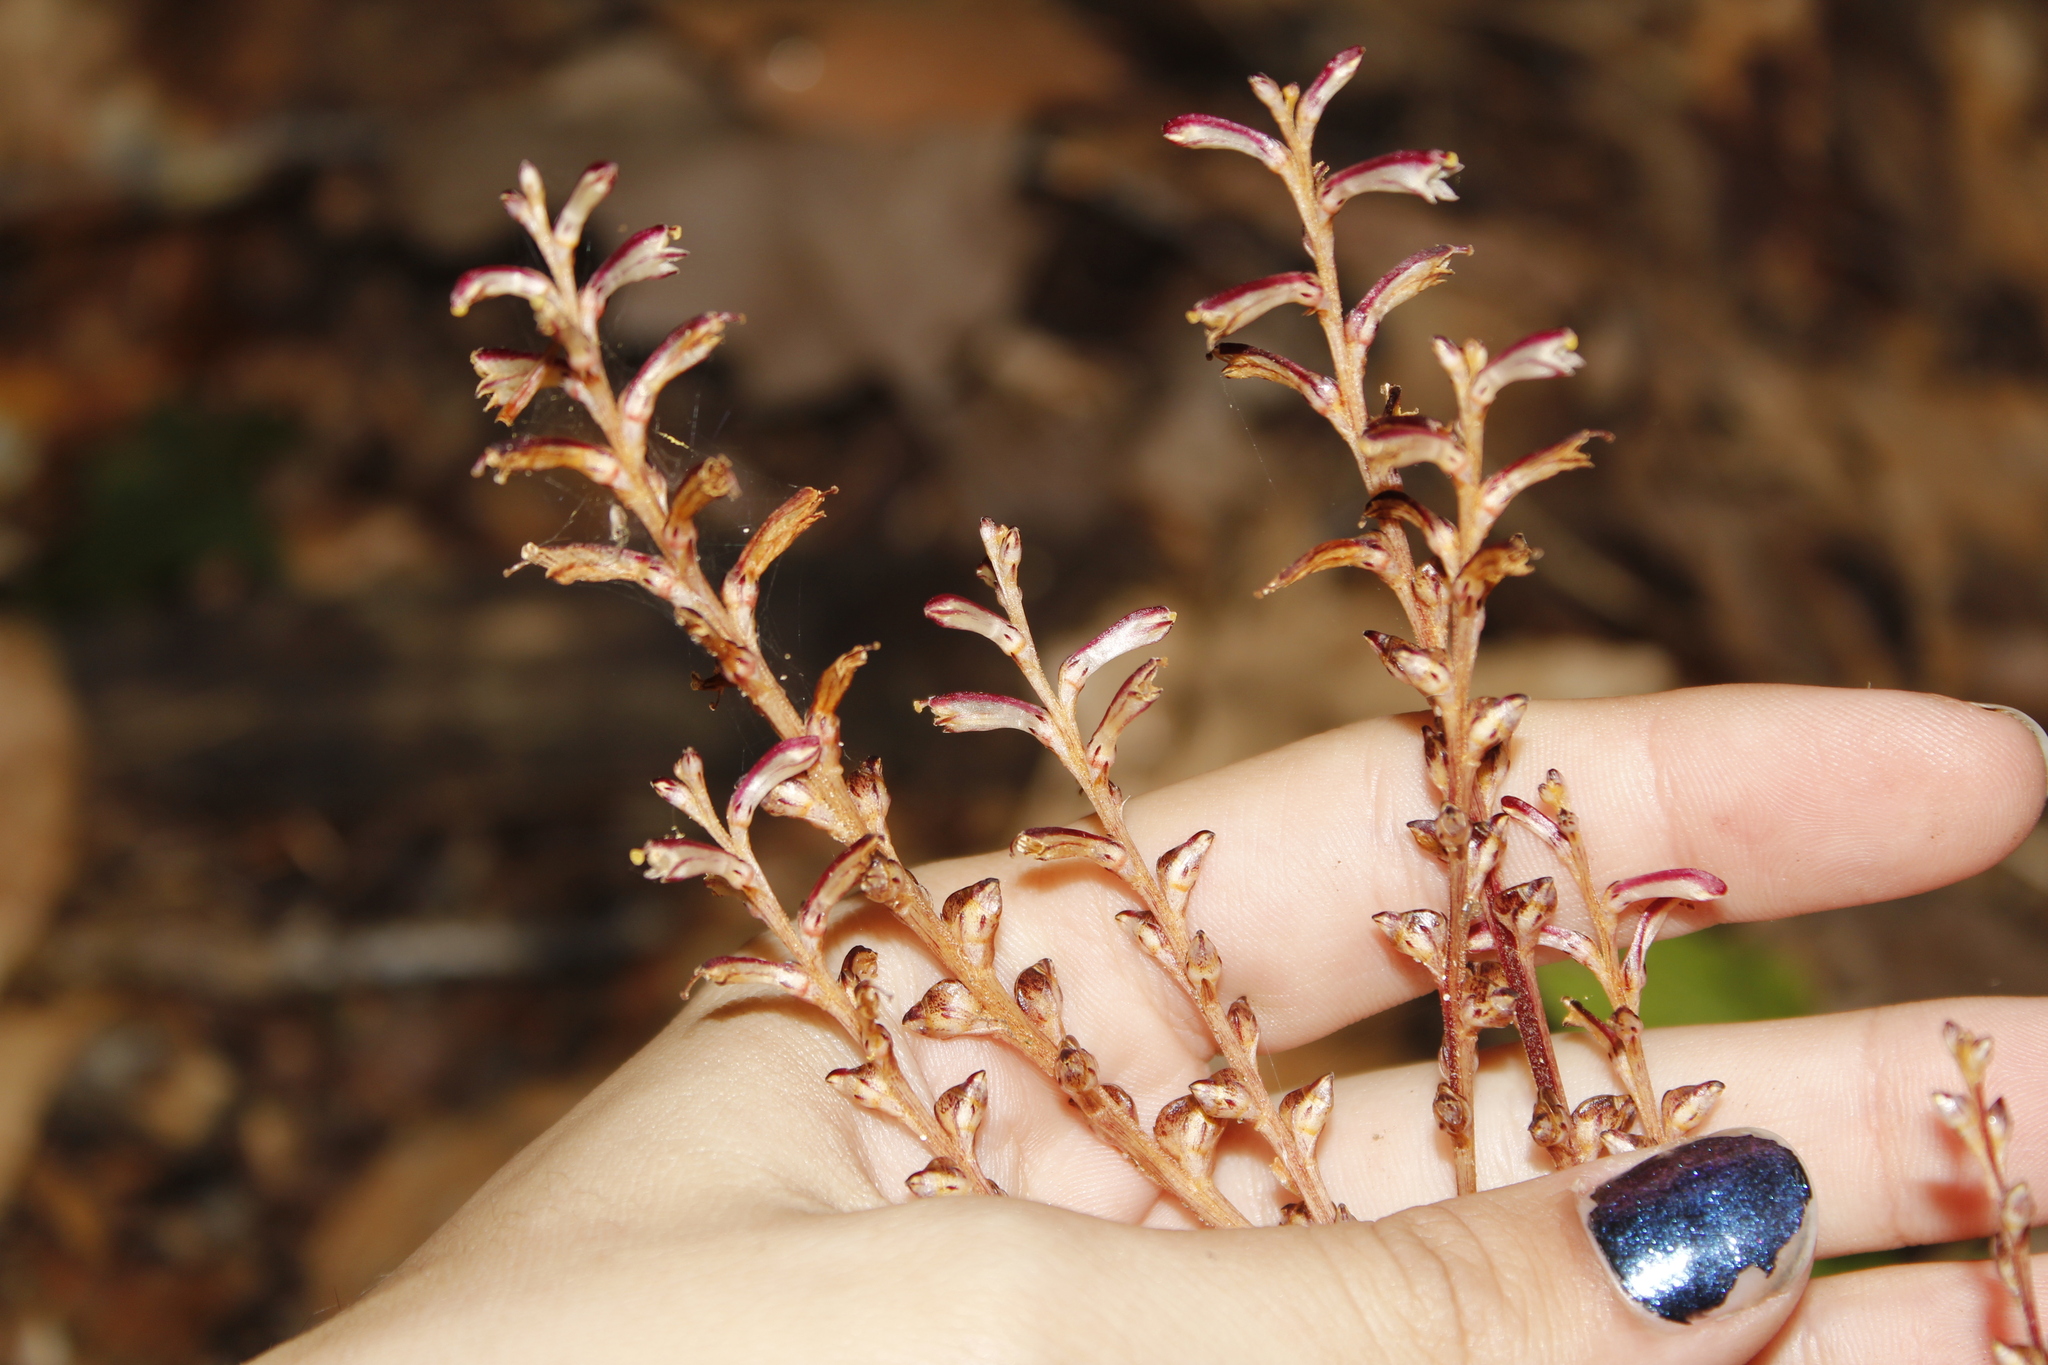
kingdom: Plantae
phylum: Tracheophyta
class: Magnoliopsida
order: Lamiales
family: Orobanchaceae
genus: Epifagus
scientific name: Epifagus virginiana
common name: Beechdrops
